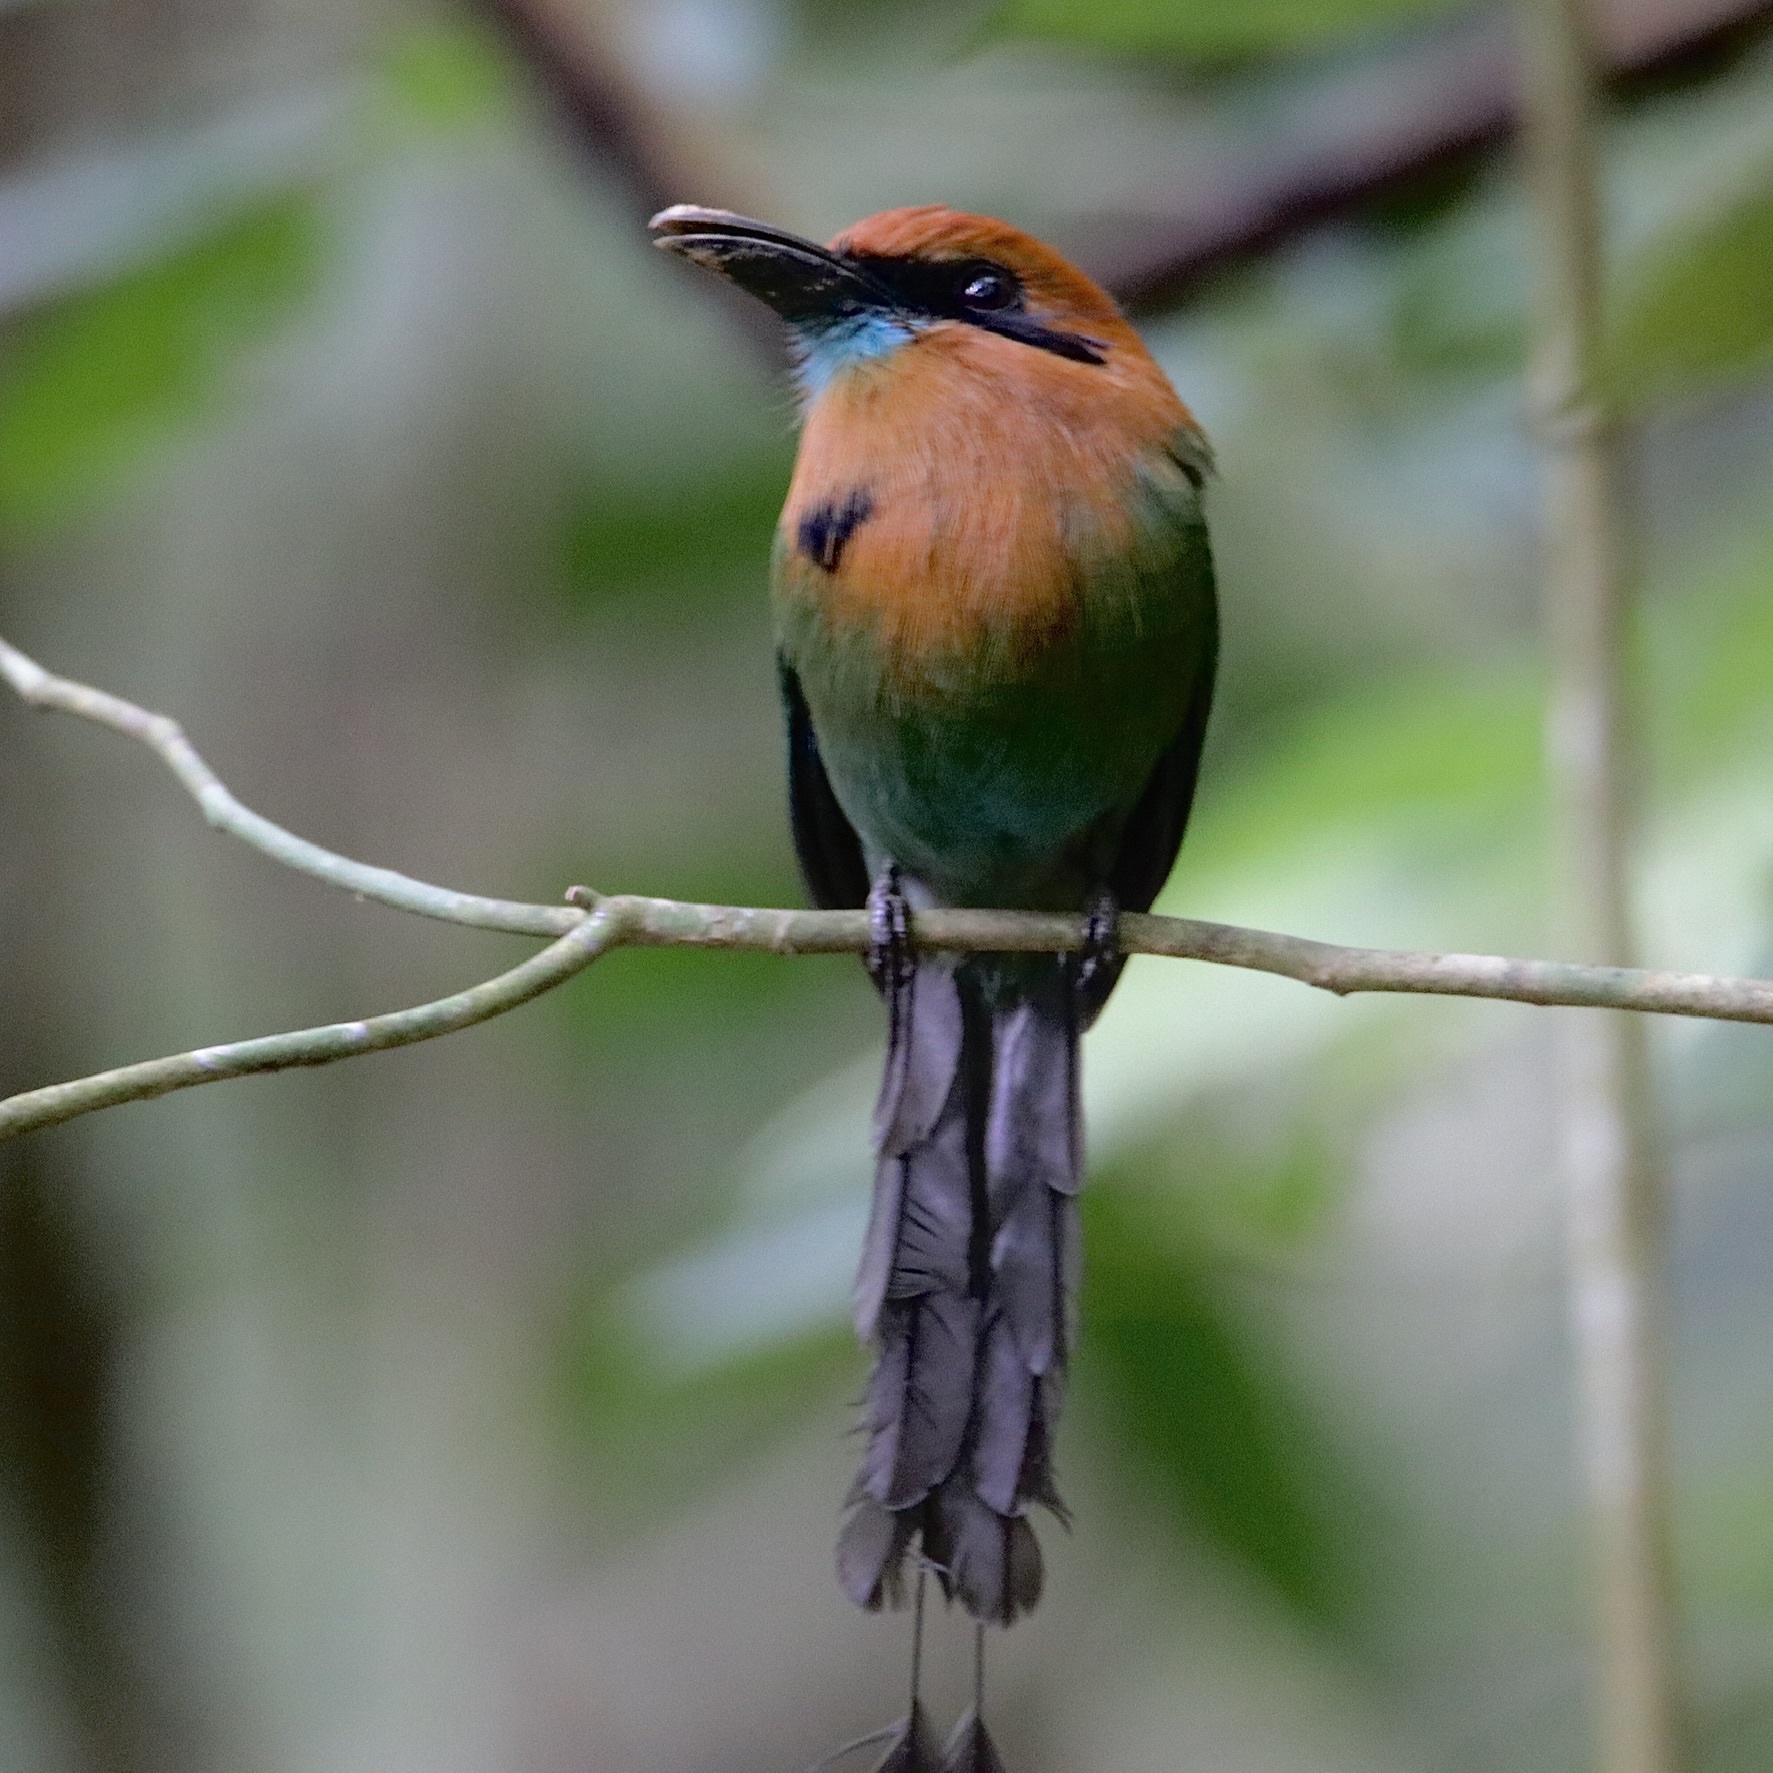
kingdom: Animalia
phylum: Chordata
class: Aves
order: Coraciiformes
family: Momotidae
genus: Electron
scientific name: Electron platyrhynchum
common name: Broad-billed motmot
